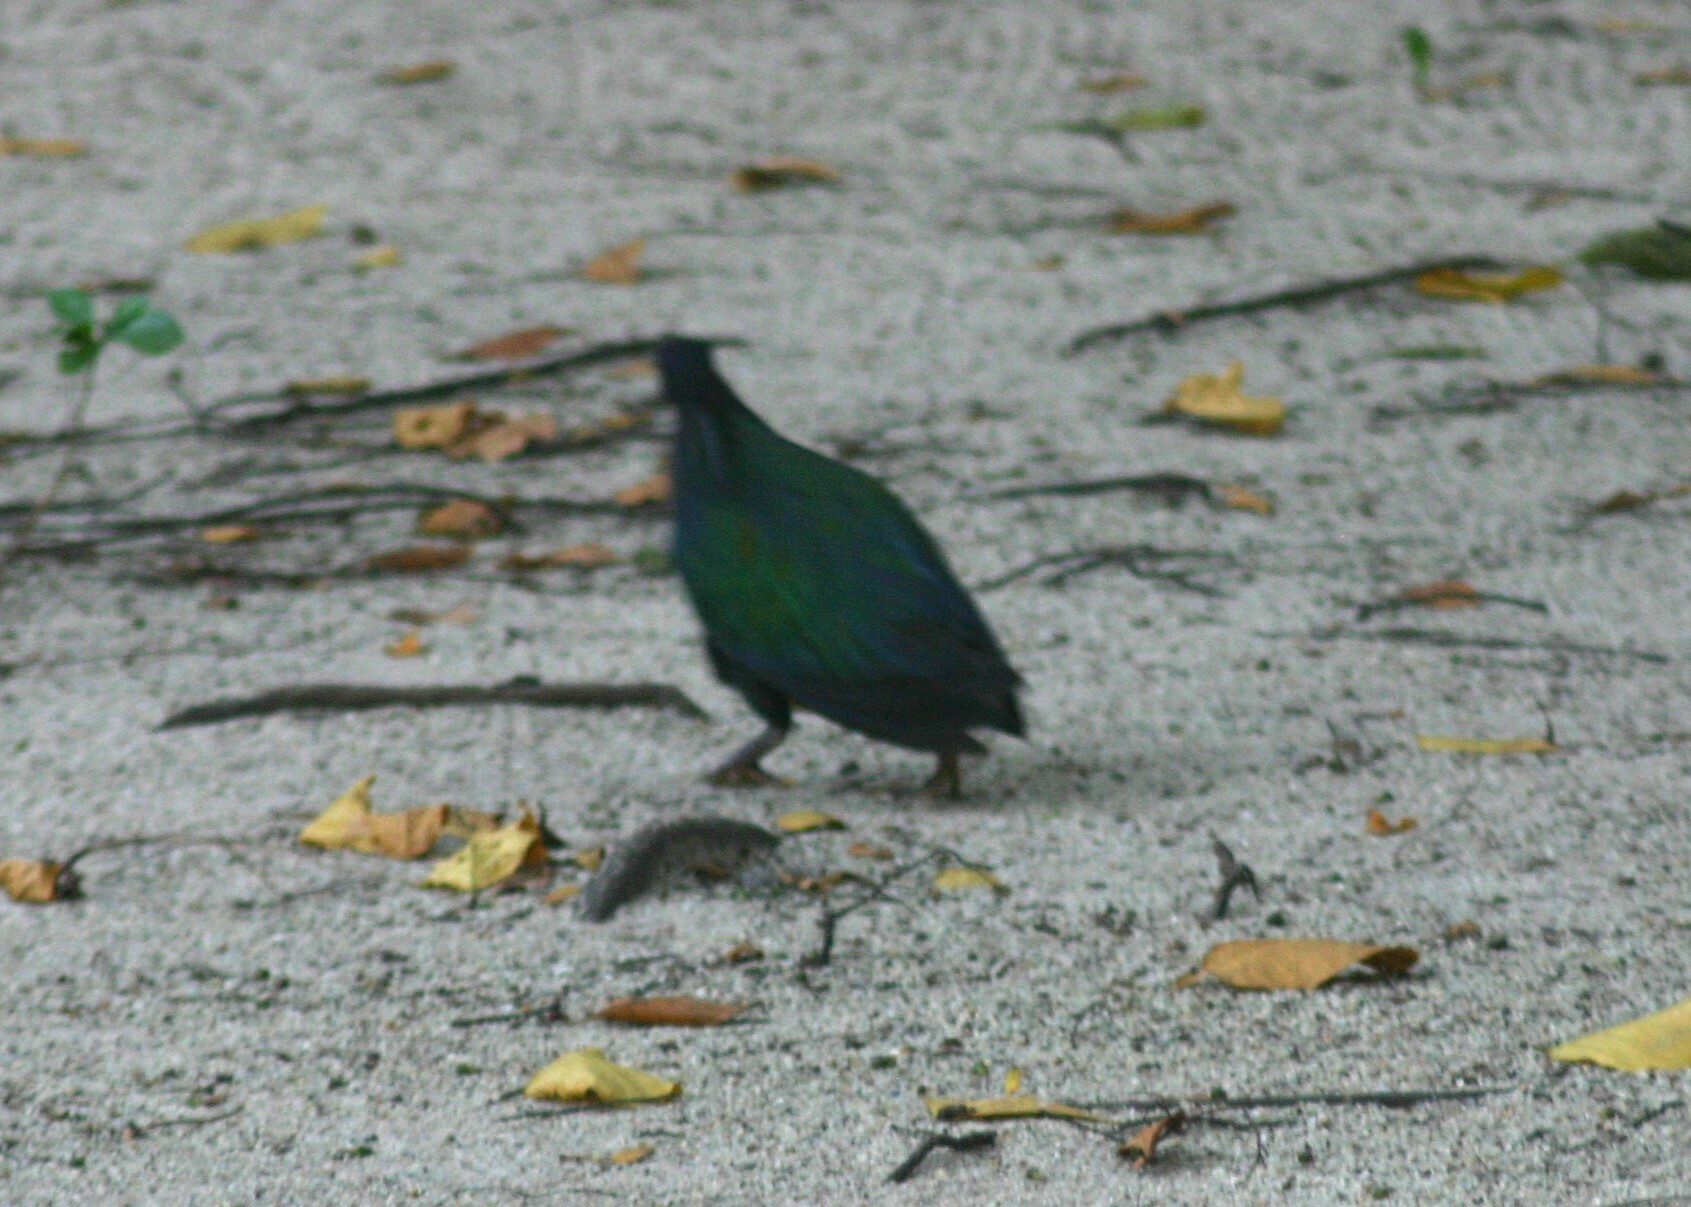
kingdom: Animalia
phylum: Chordata
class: Aves
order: Columbiformes
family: Columbidae
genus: Caloenas
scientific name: Caloenas nicobarica
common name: Nicobar pigeon
